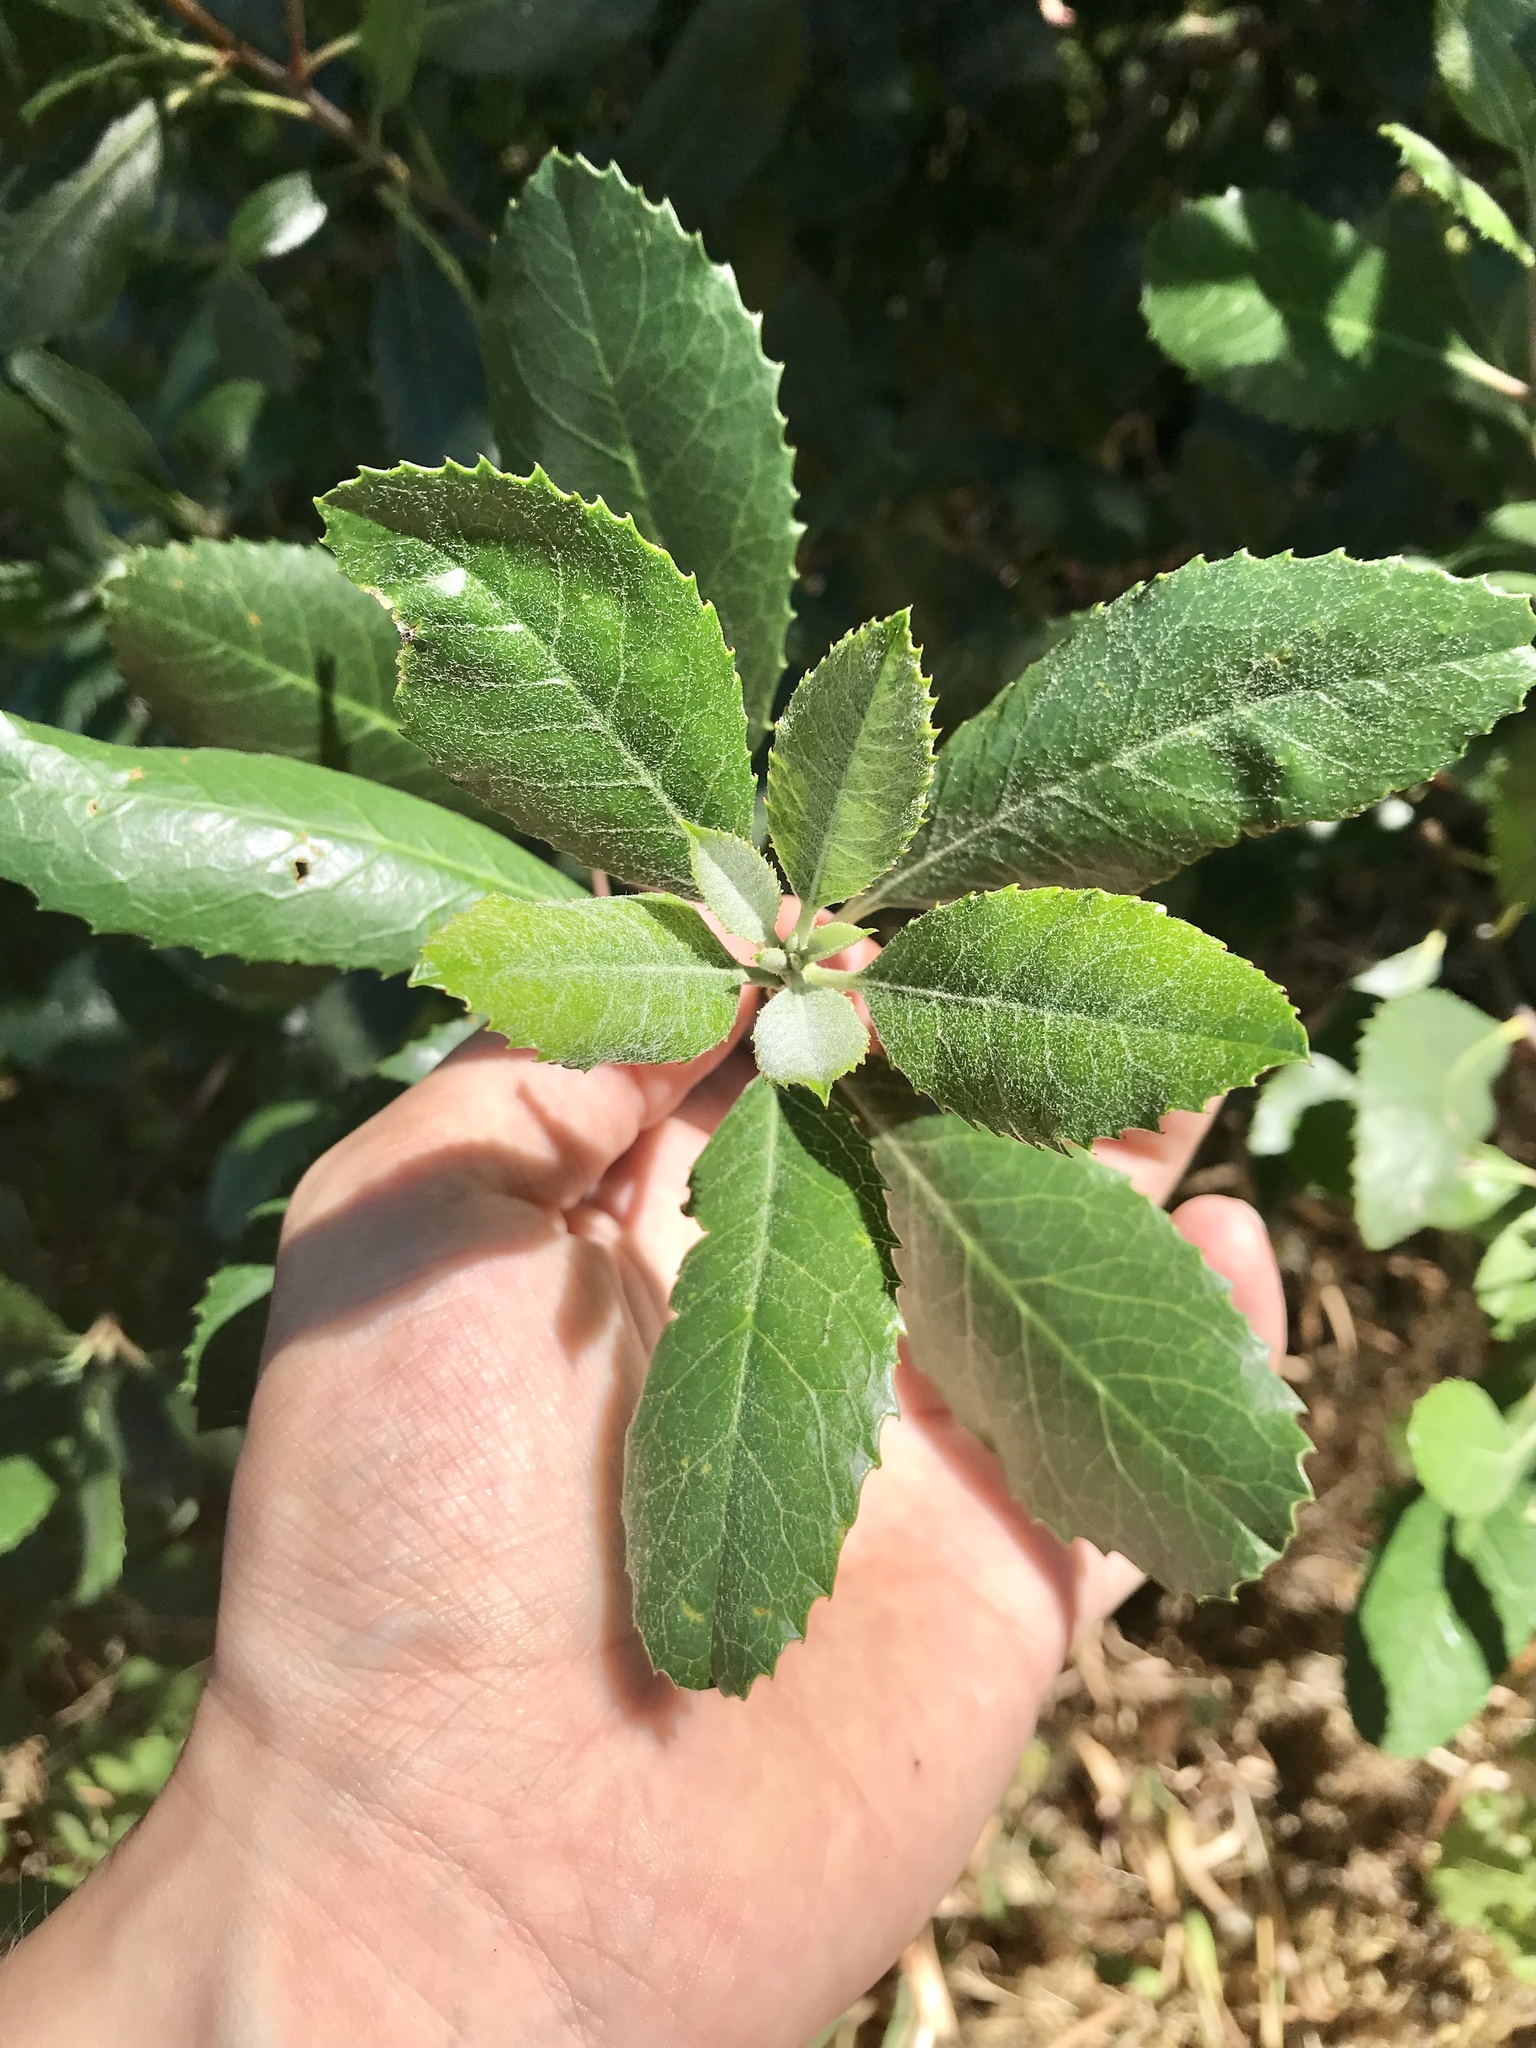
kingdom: Plantae
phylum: Tracheophyta
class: Magnoliopsida
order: Rosales
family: Rosaceae
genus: Heteromeles
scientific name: Heteromeles arbutifolia
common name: California-holly
